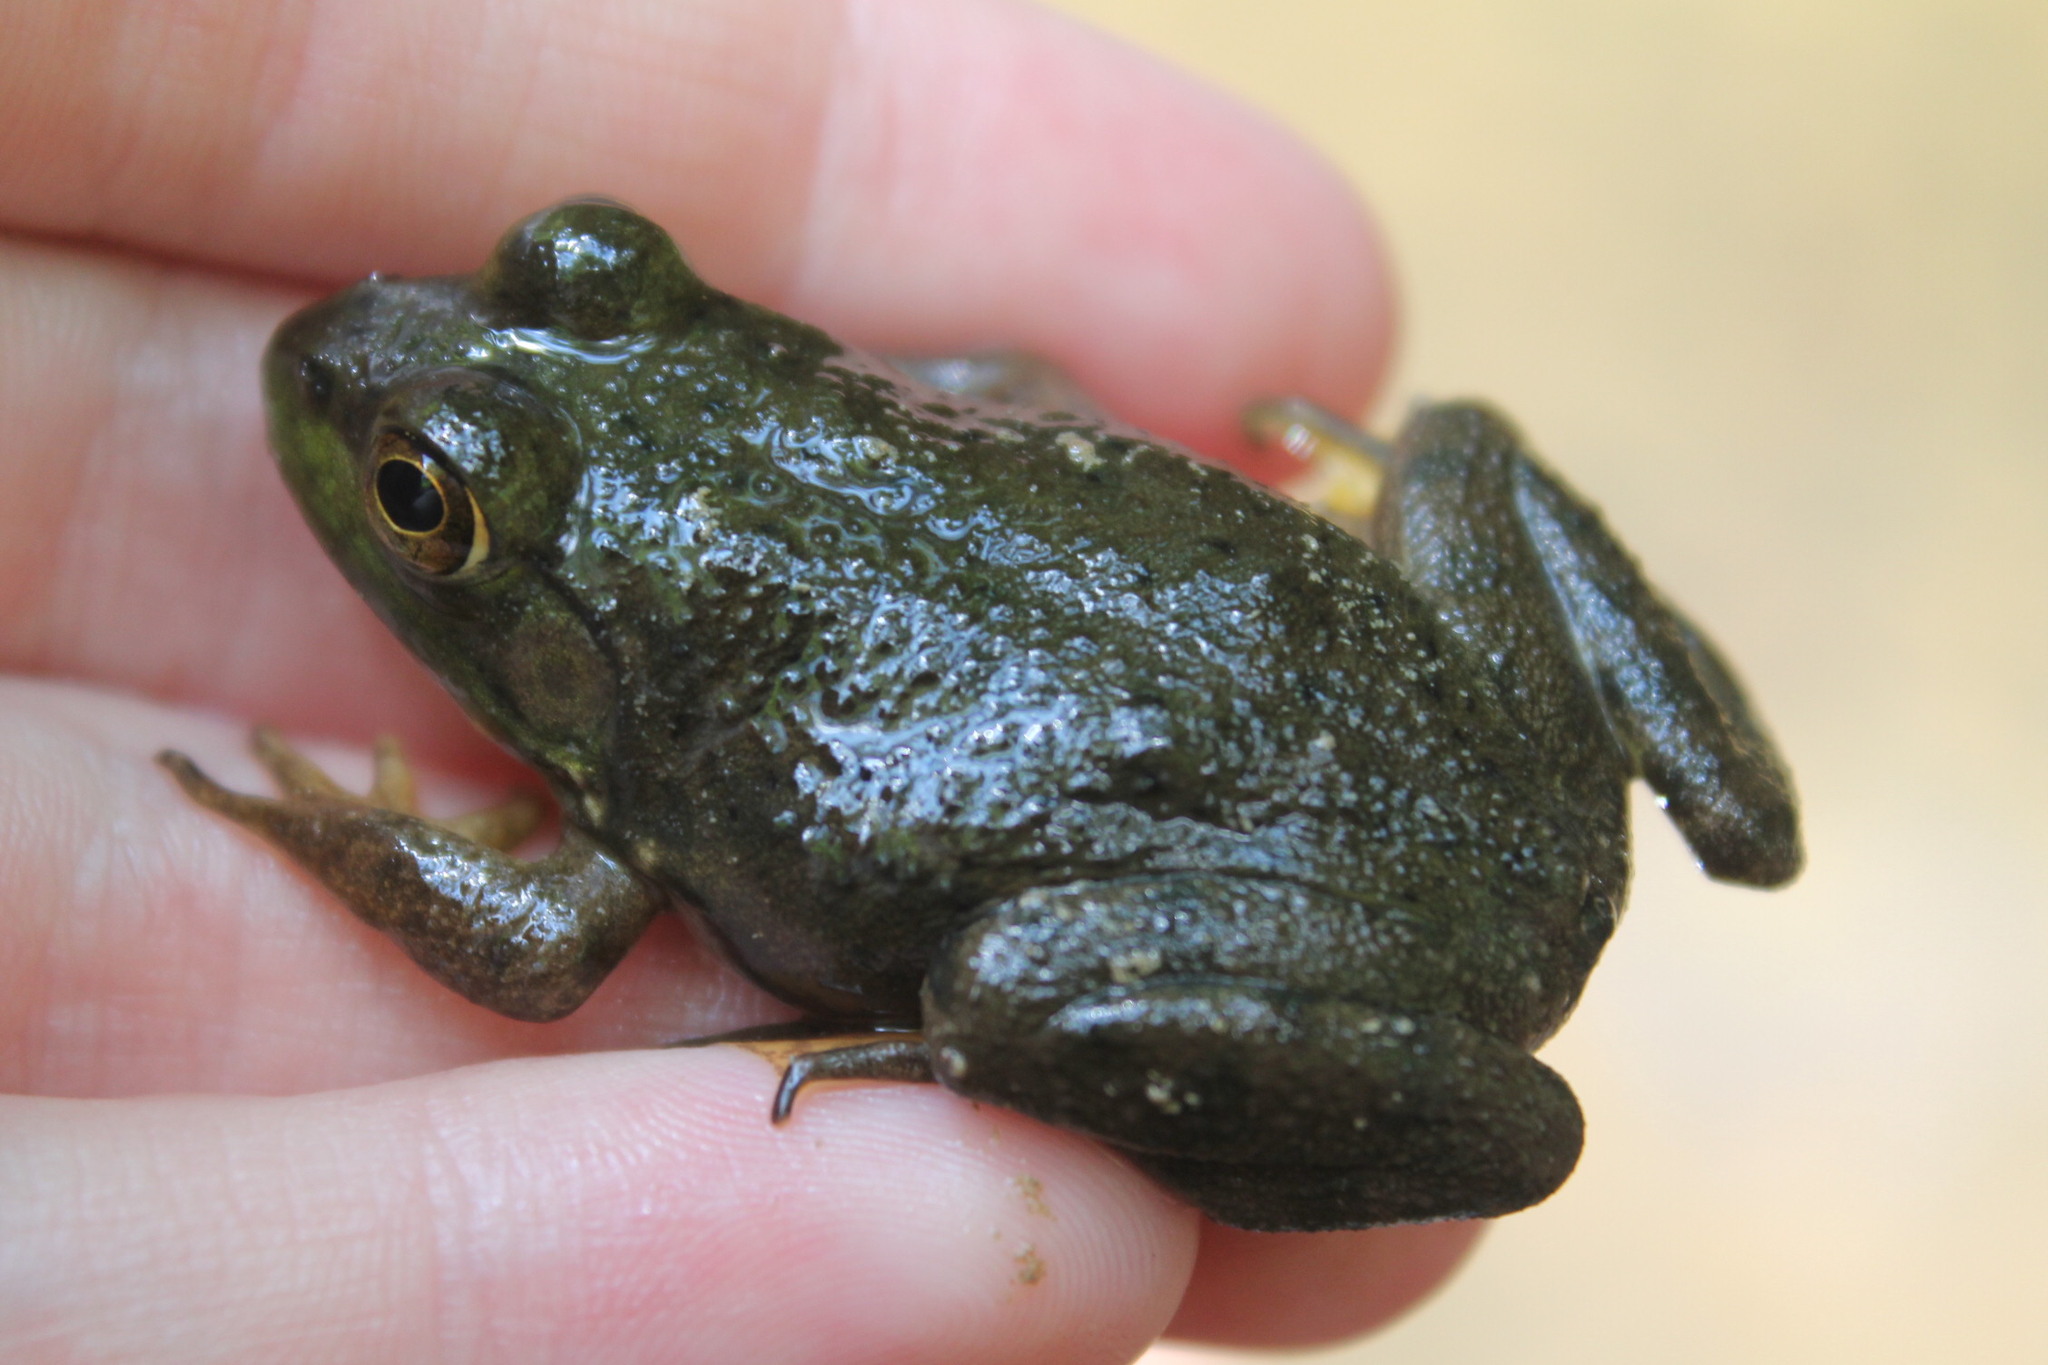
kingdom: Animalia
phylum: Chordata
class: Amphibia
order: Anura
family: Ranidae
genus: Lithobates
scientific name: Lithobates catesbeianus
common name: American bullfrog
